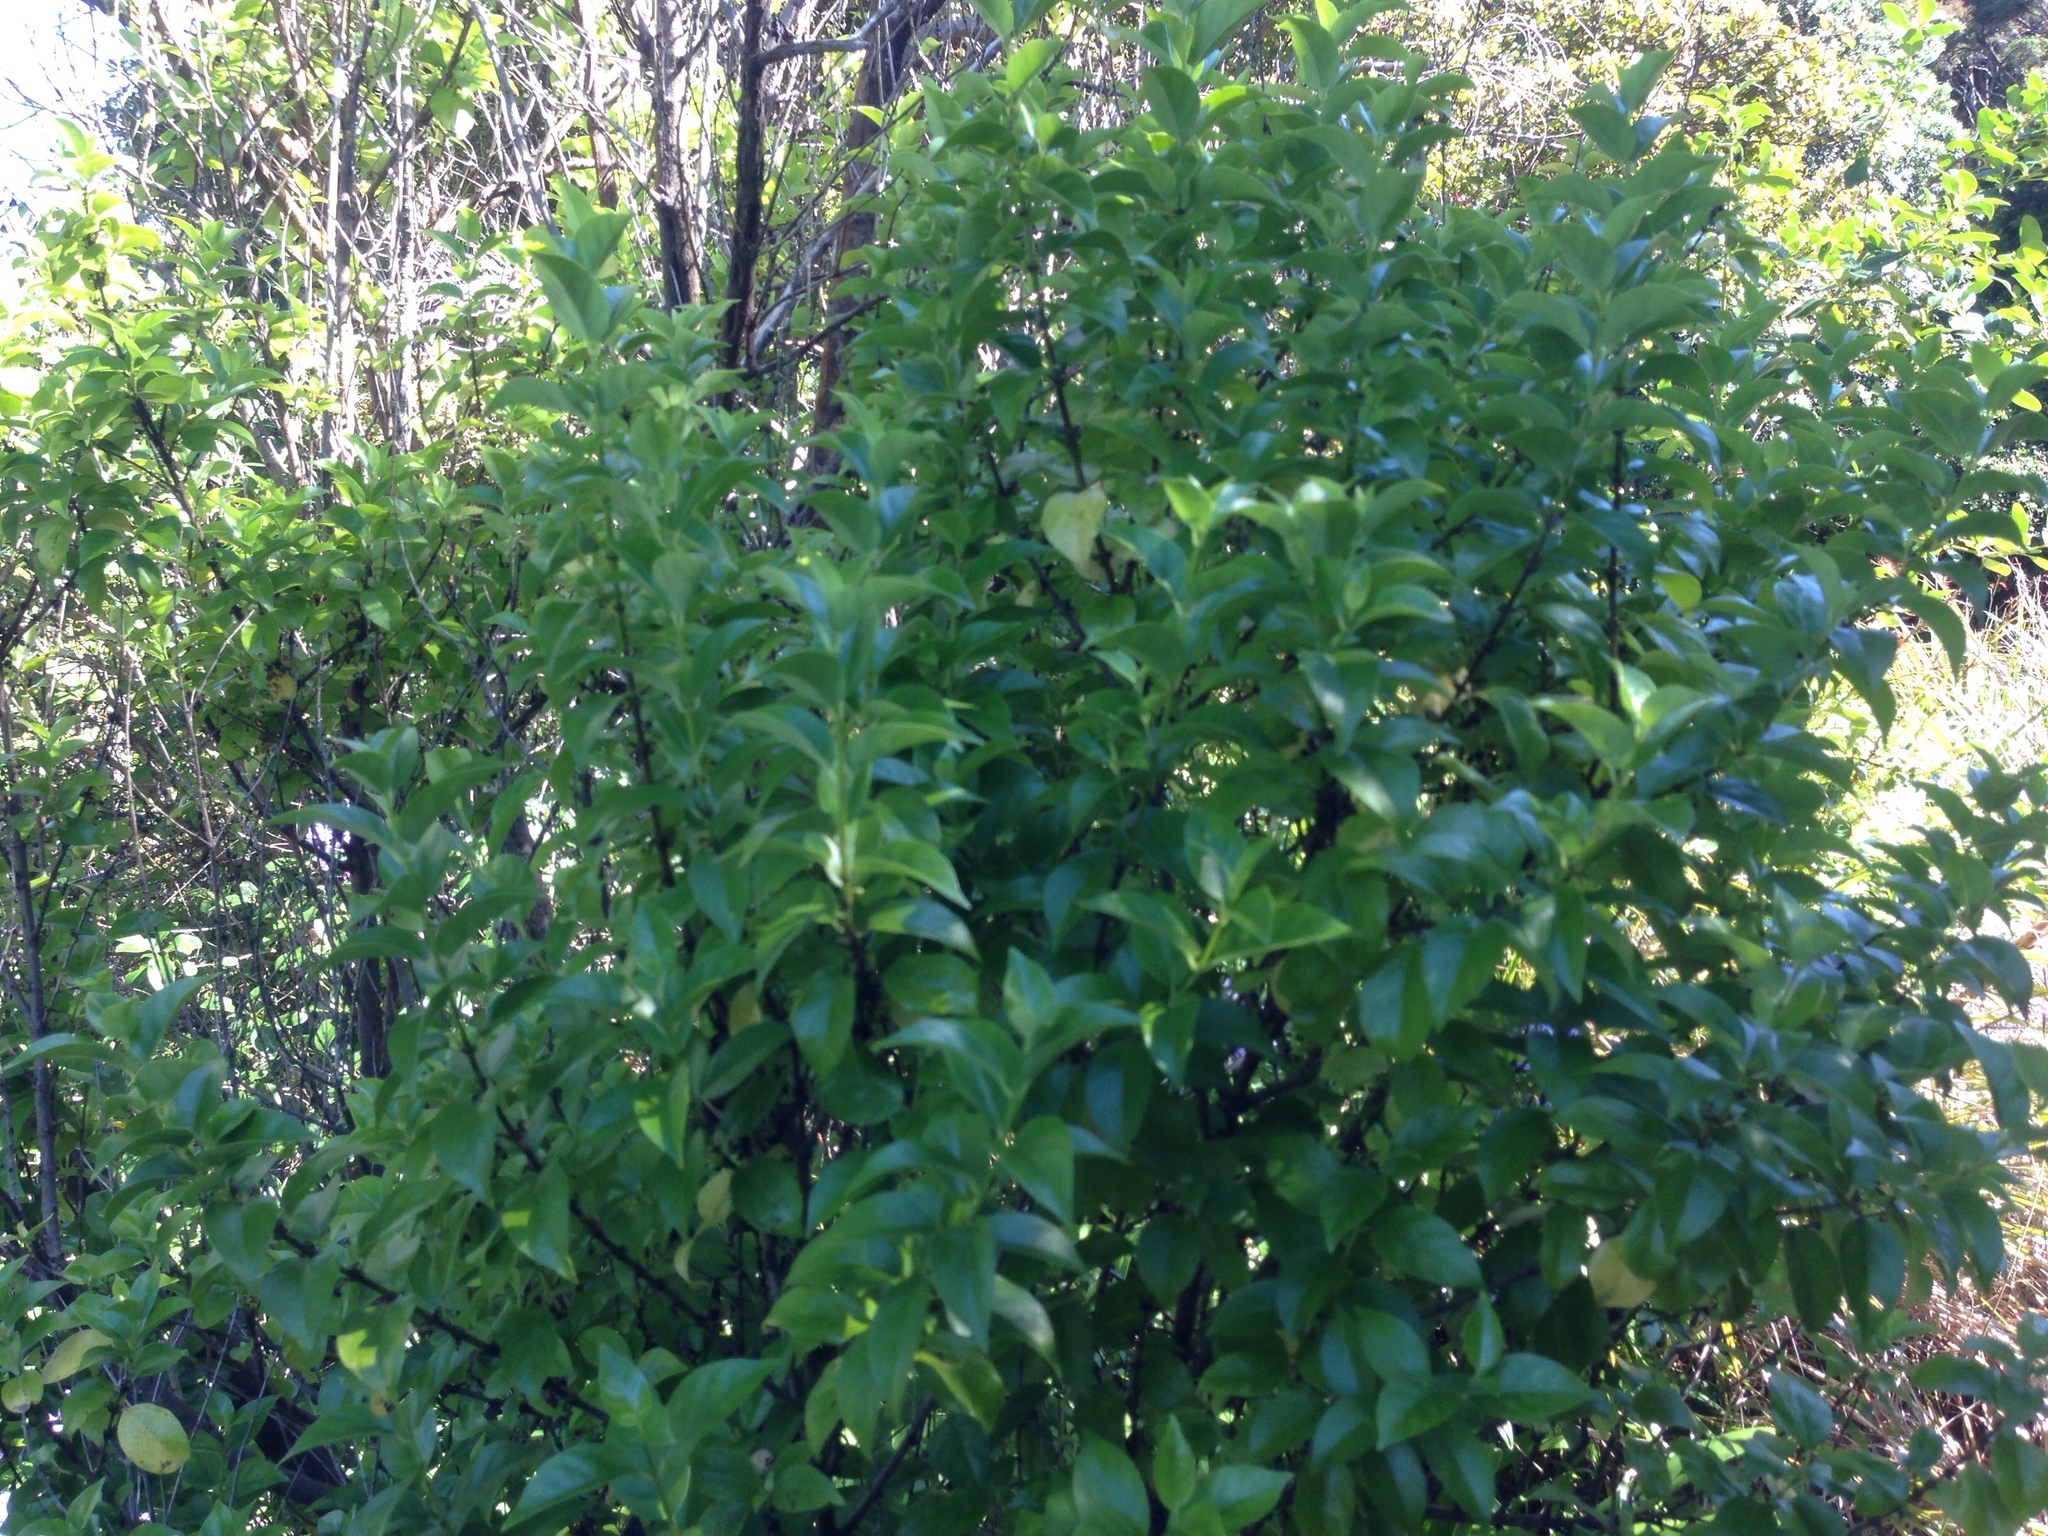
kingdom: Plantae
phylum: Tracheophyta
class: Magnoliopsida
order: Gentianales
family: Loganiaceae
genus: Geniostoma
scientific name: Geniostoma ligustrifolium
